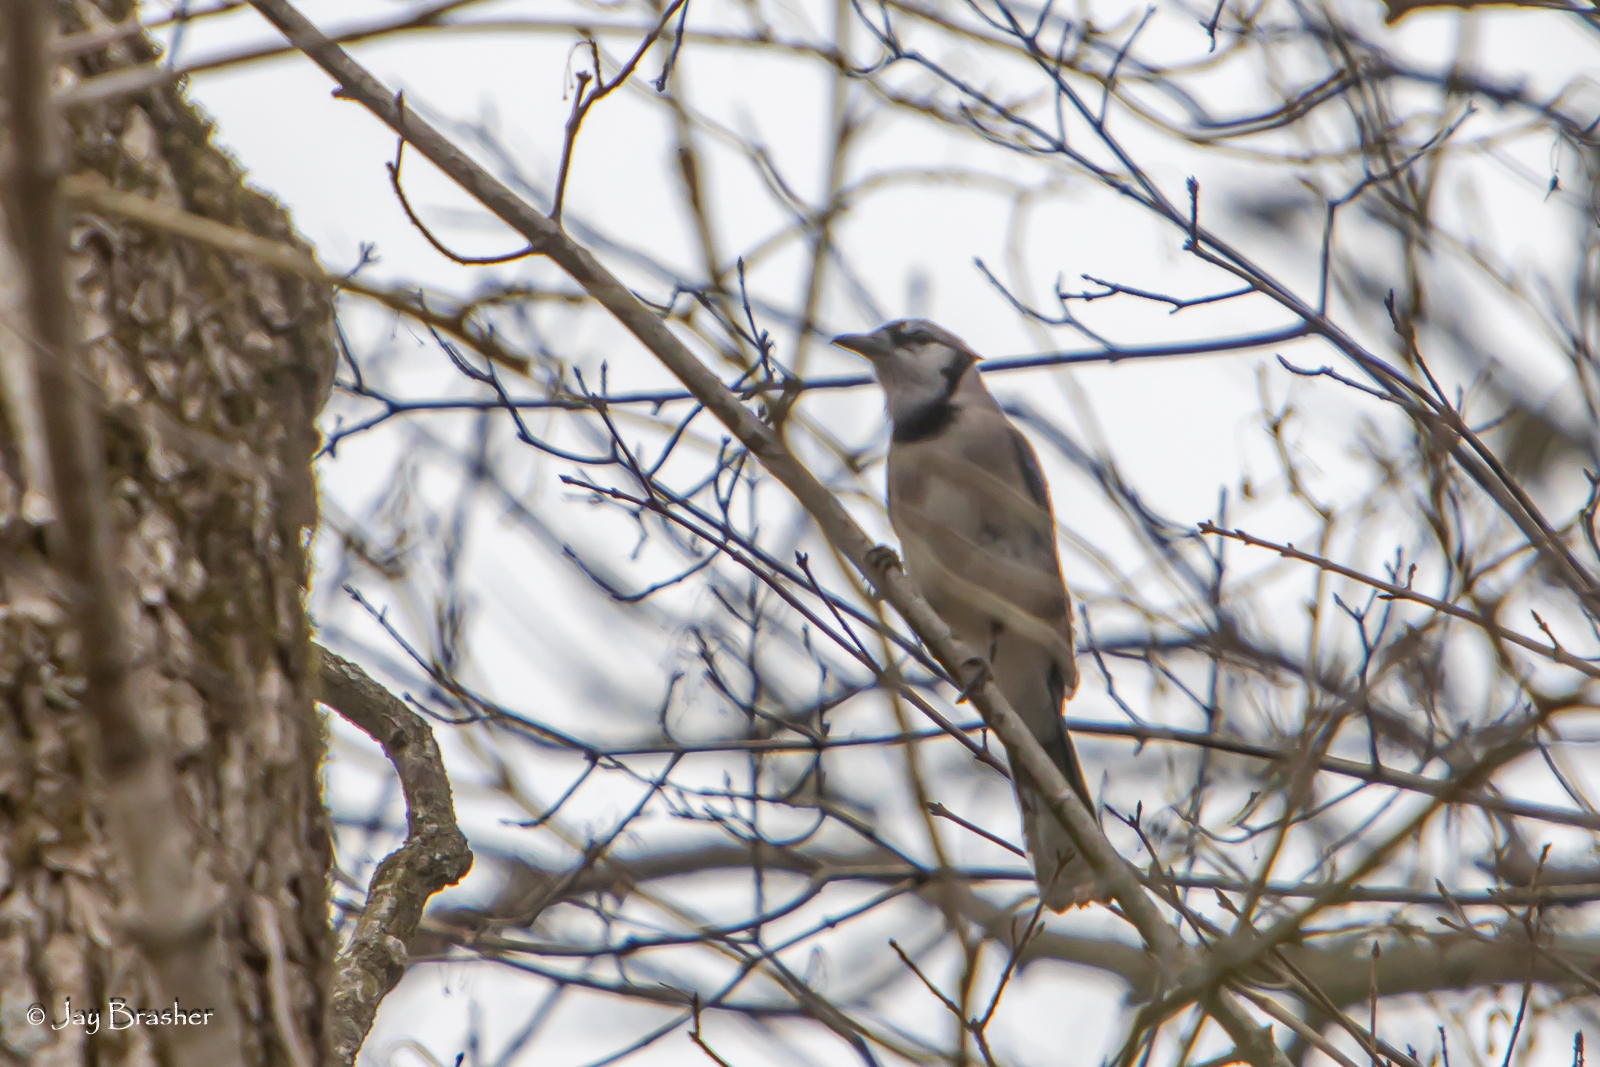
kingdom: Animalia
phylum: Chordata
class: Aves
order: Passeriformes
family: Corvidae
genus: Cyanocitta
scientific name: Cyanocitta cristata
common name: Blue jay
